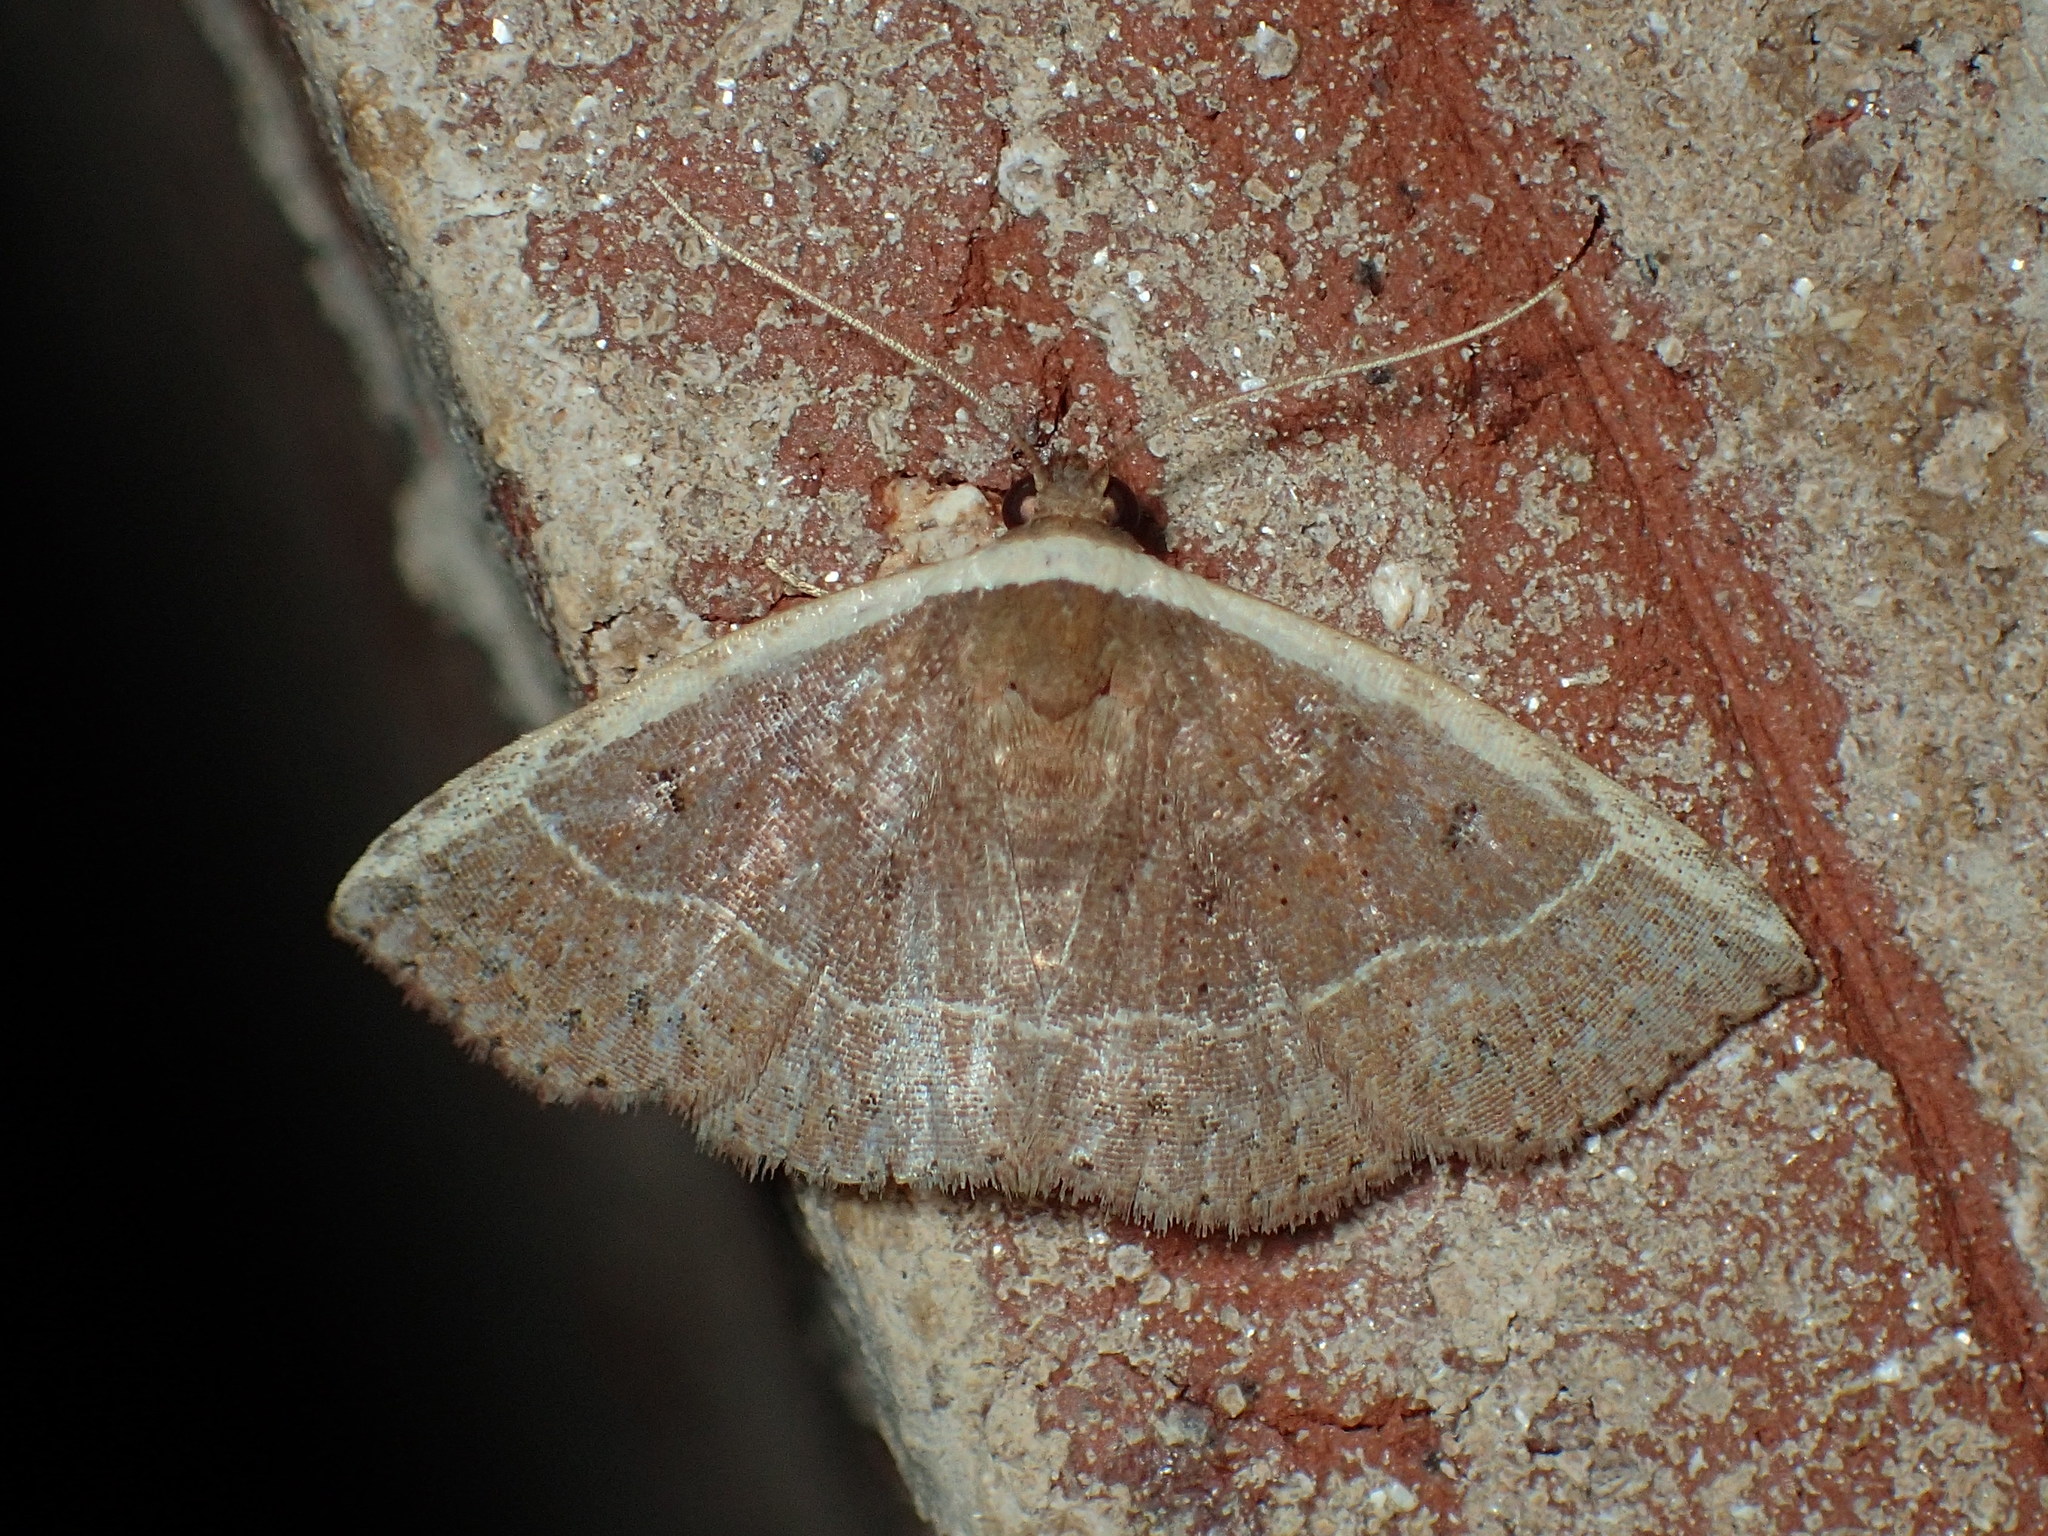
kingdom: Animalia
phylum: Arthropoda
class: Insecta
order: Lepidoptera
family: Noctuidae
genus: Ozarba
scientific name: Ozarba albocostaliata
